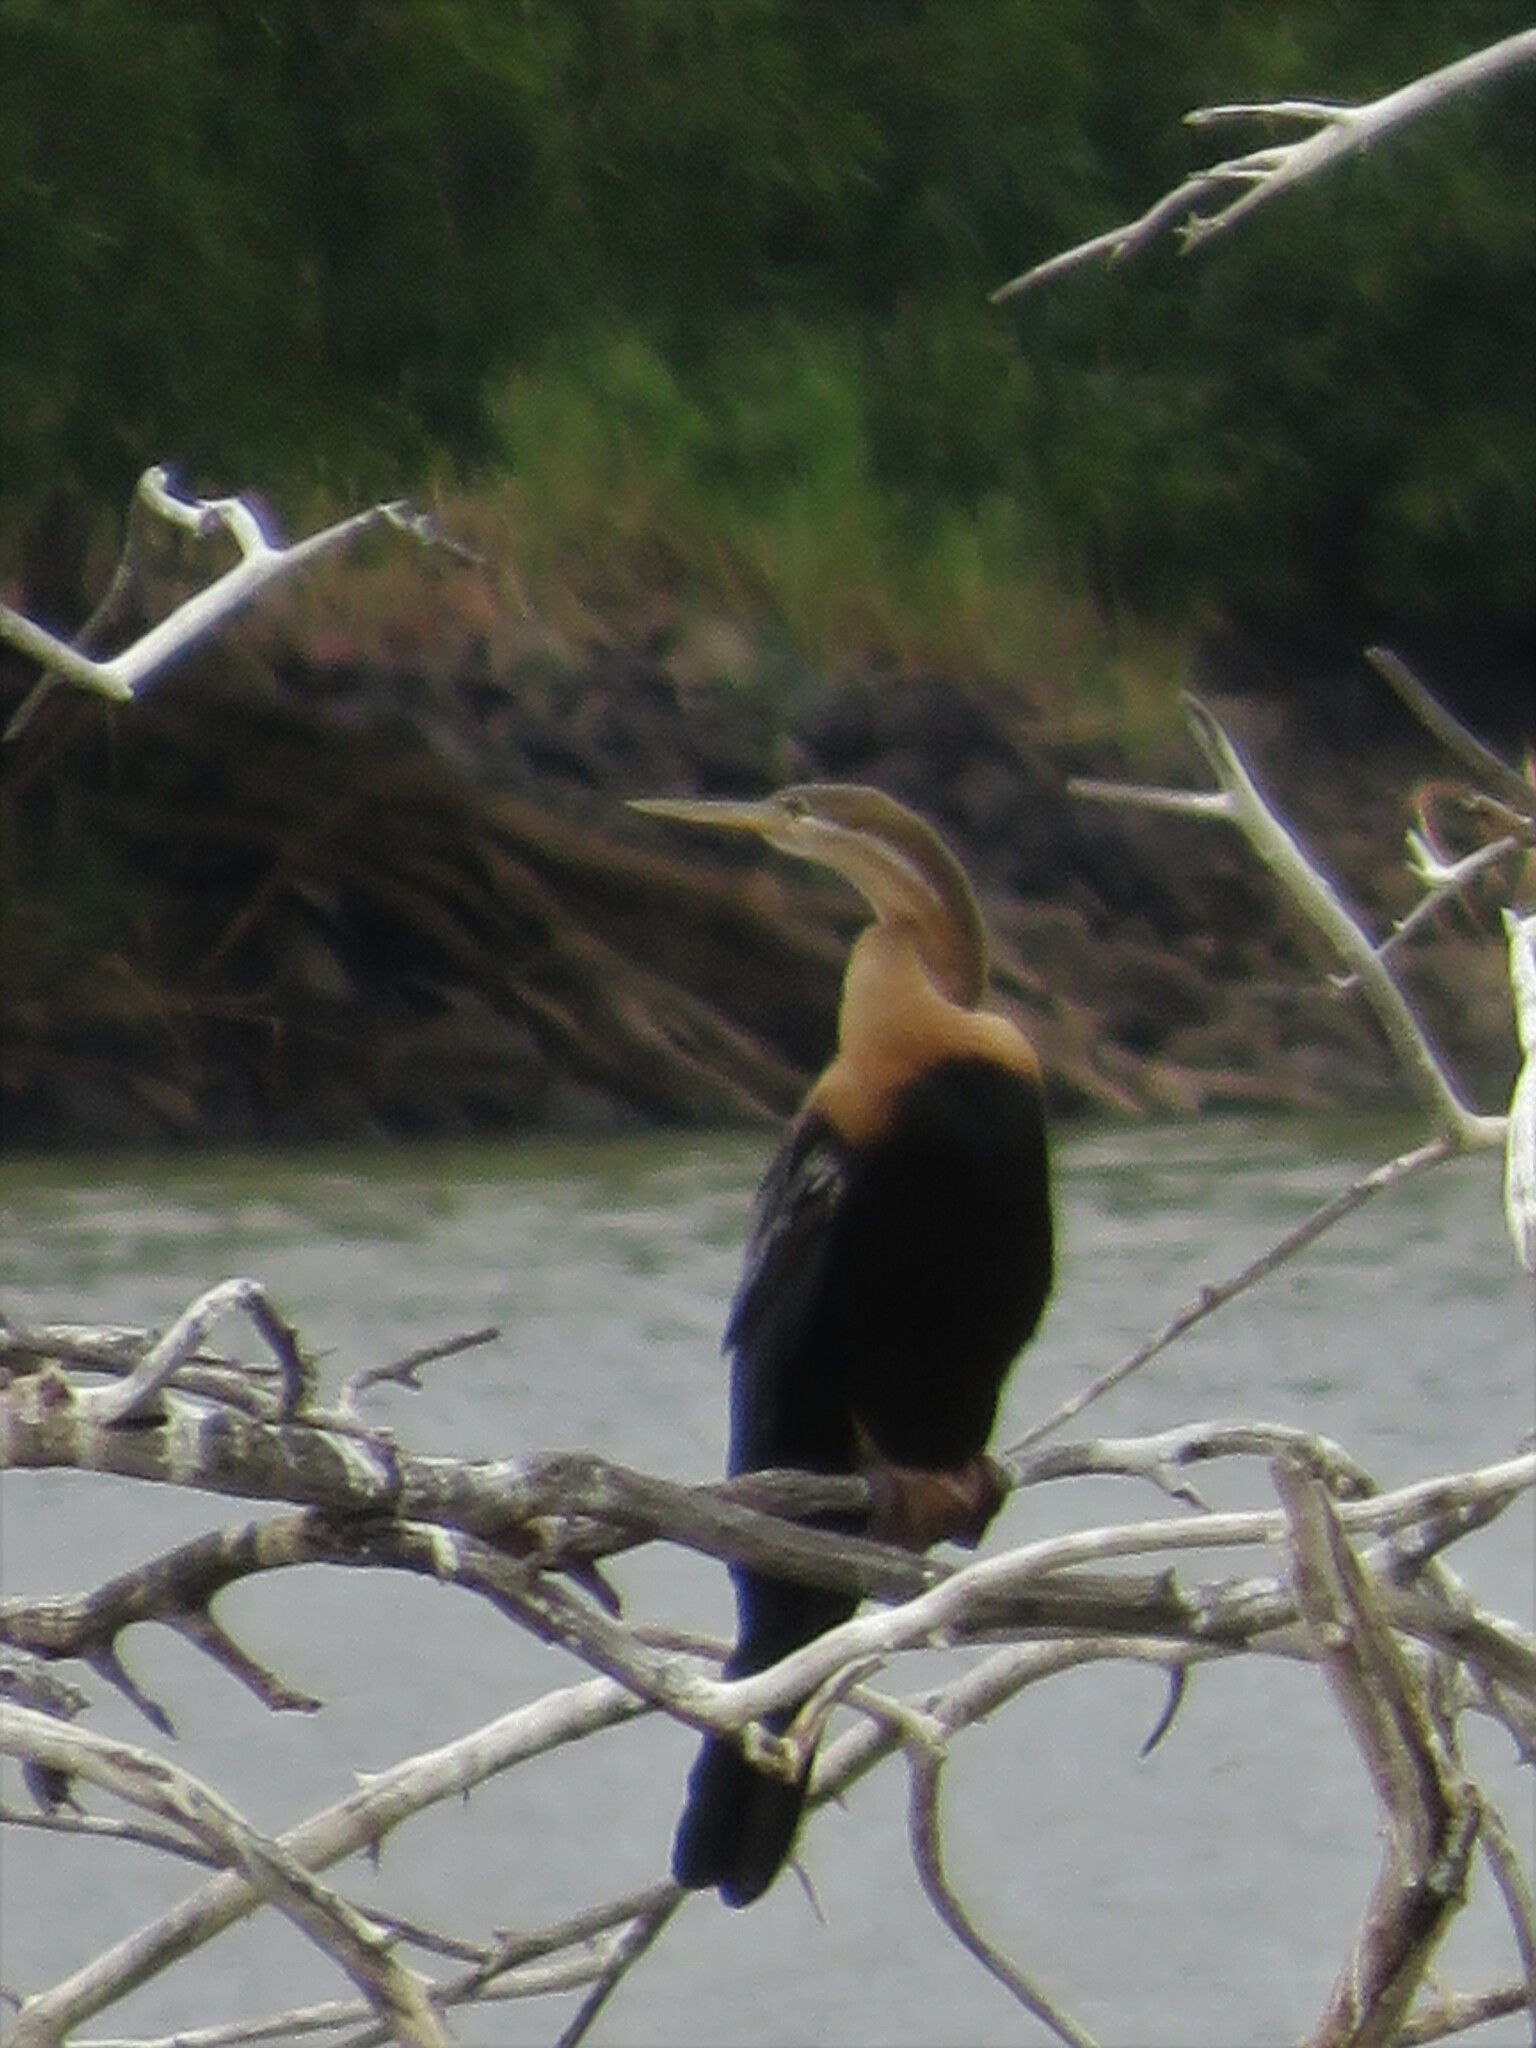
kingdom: Animalia
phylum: Chordata
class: Aves
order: Suliformes
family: Anhingidae
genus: Anhinga
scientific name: Anhinga rufa
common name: African darter
